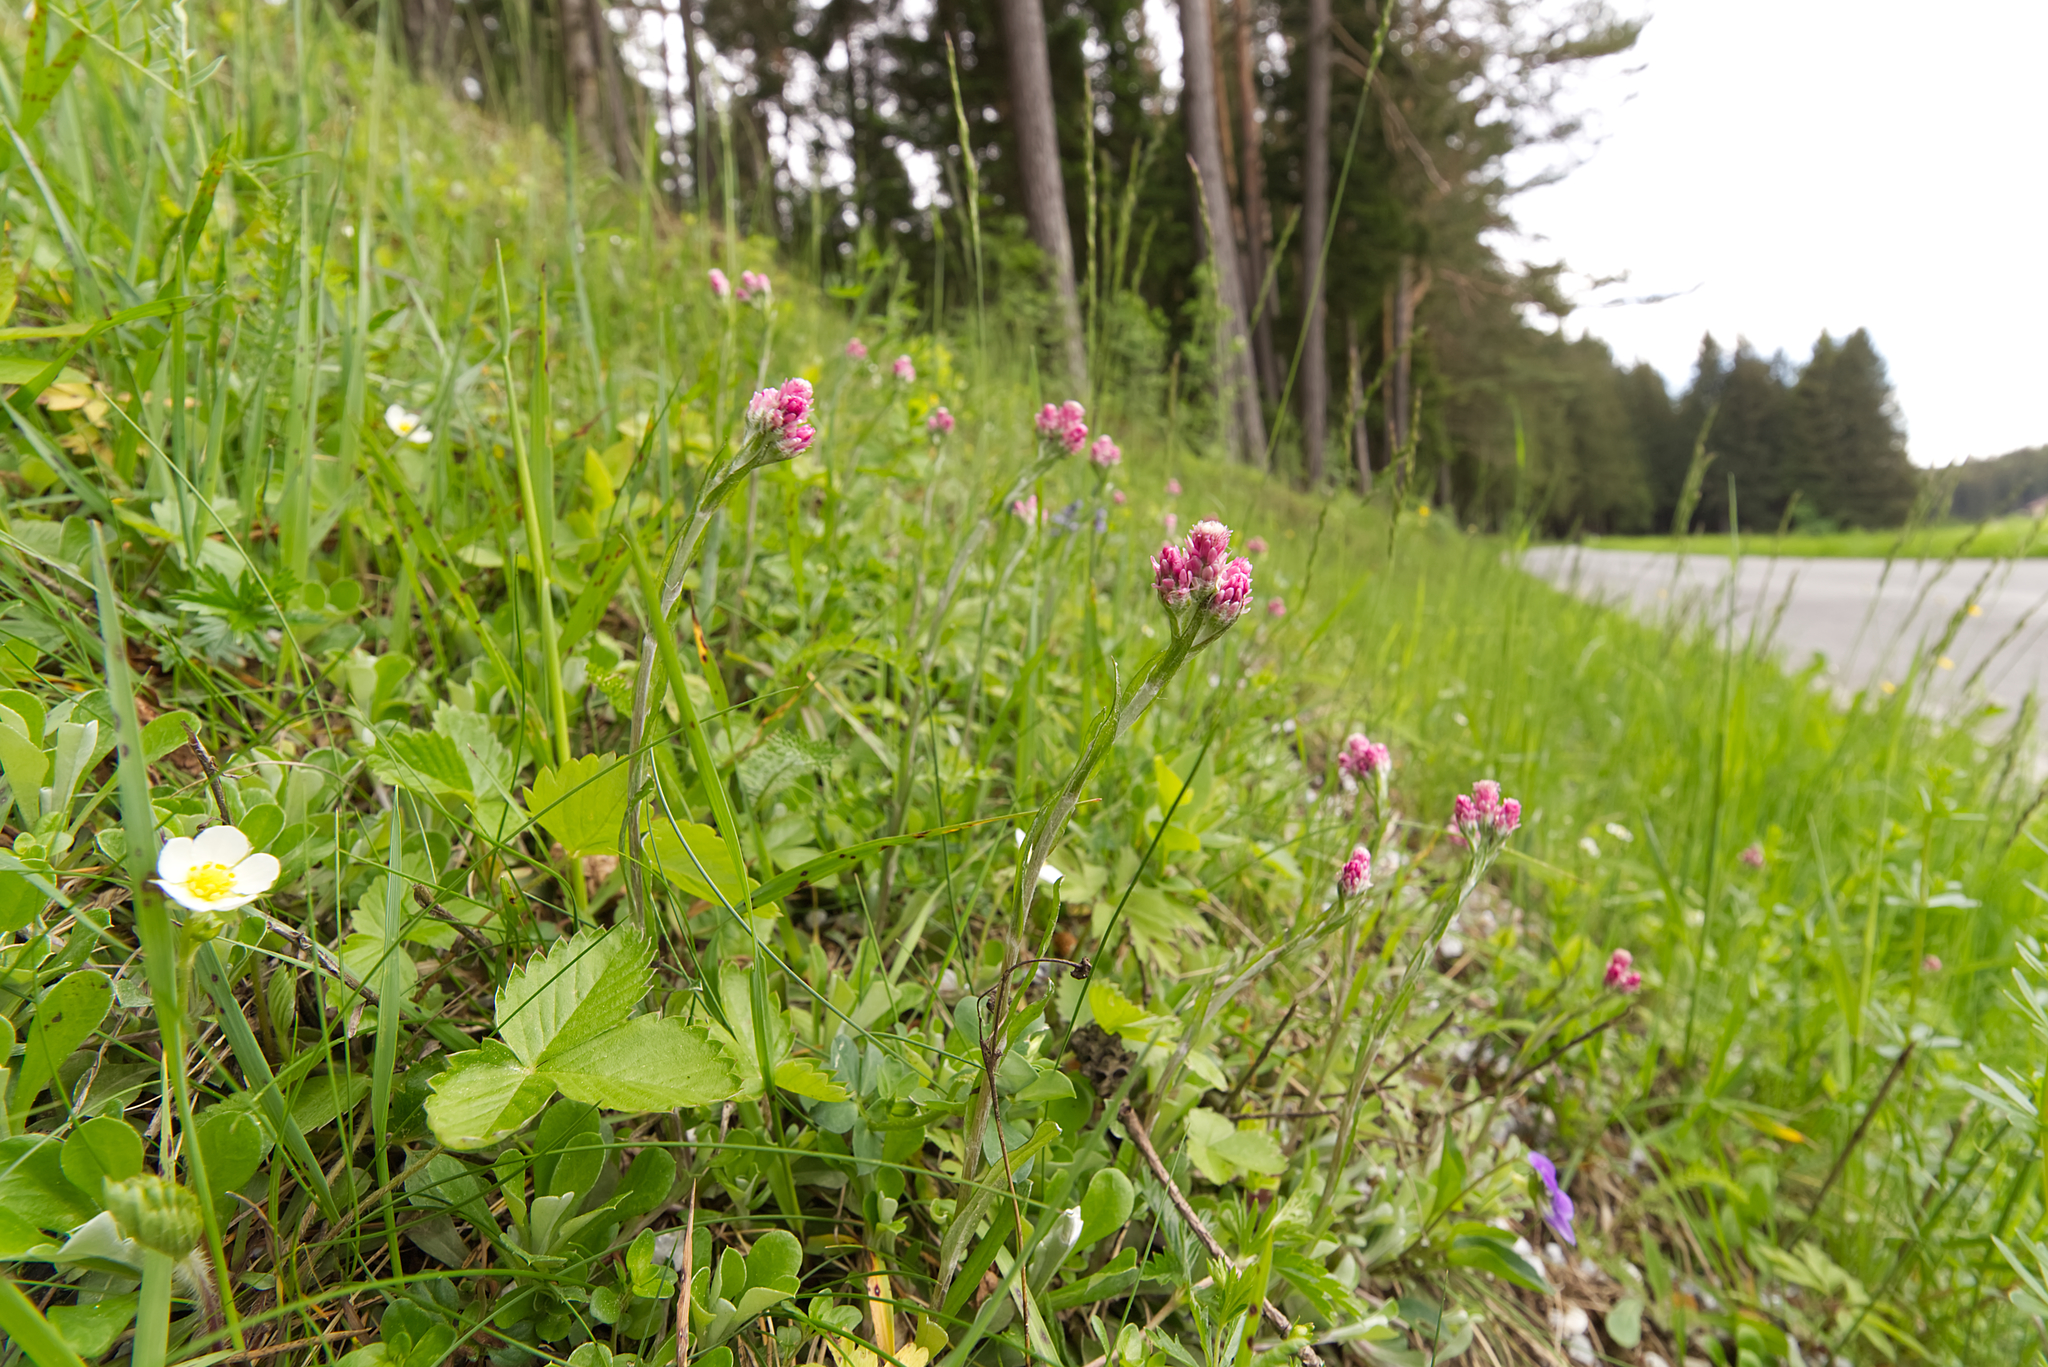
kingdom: Plantae
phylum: Tracheophyta
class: Magnoliopsida
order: Asterales
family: Asteraceae
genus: Antennaria
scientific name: Antennaria dioica
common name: Mountain everlasting
